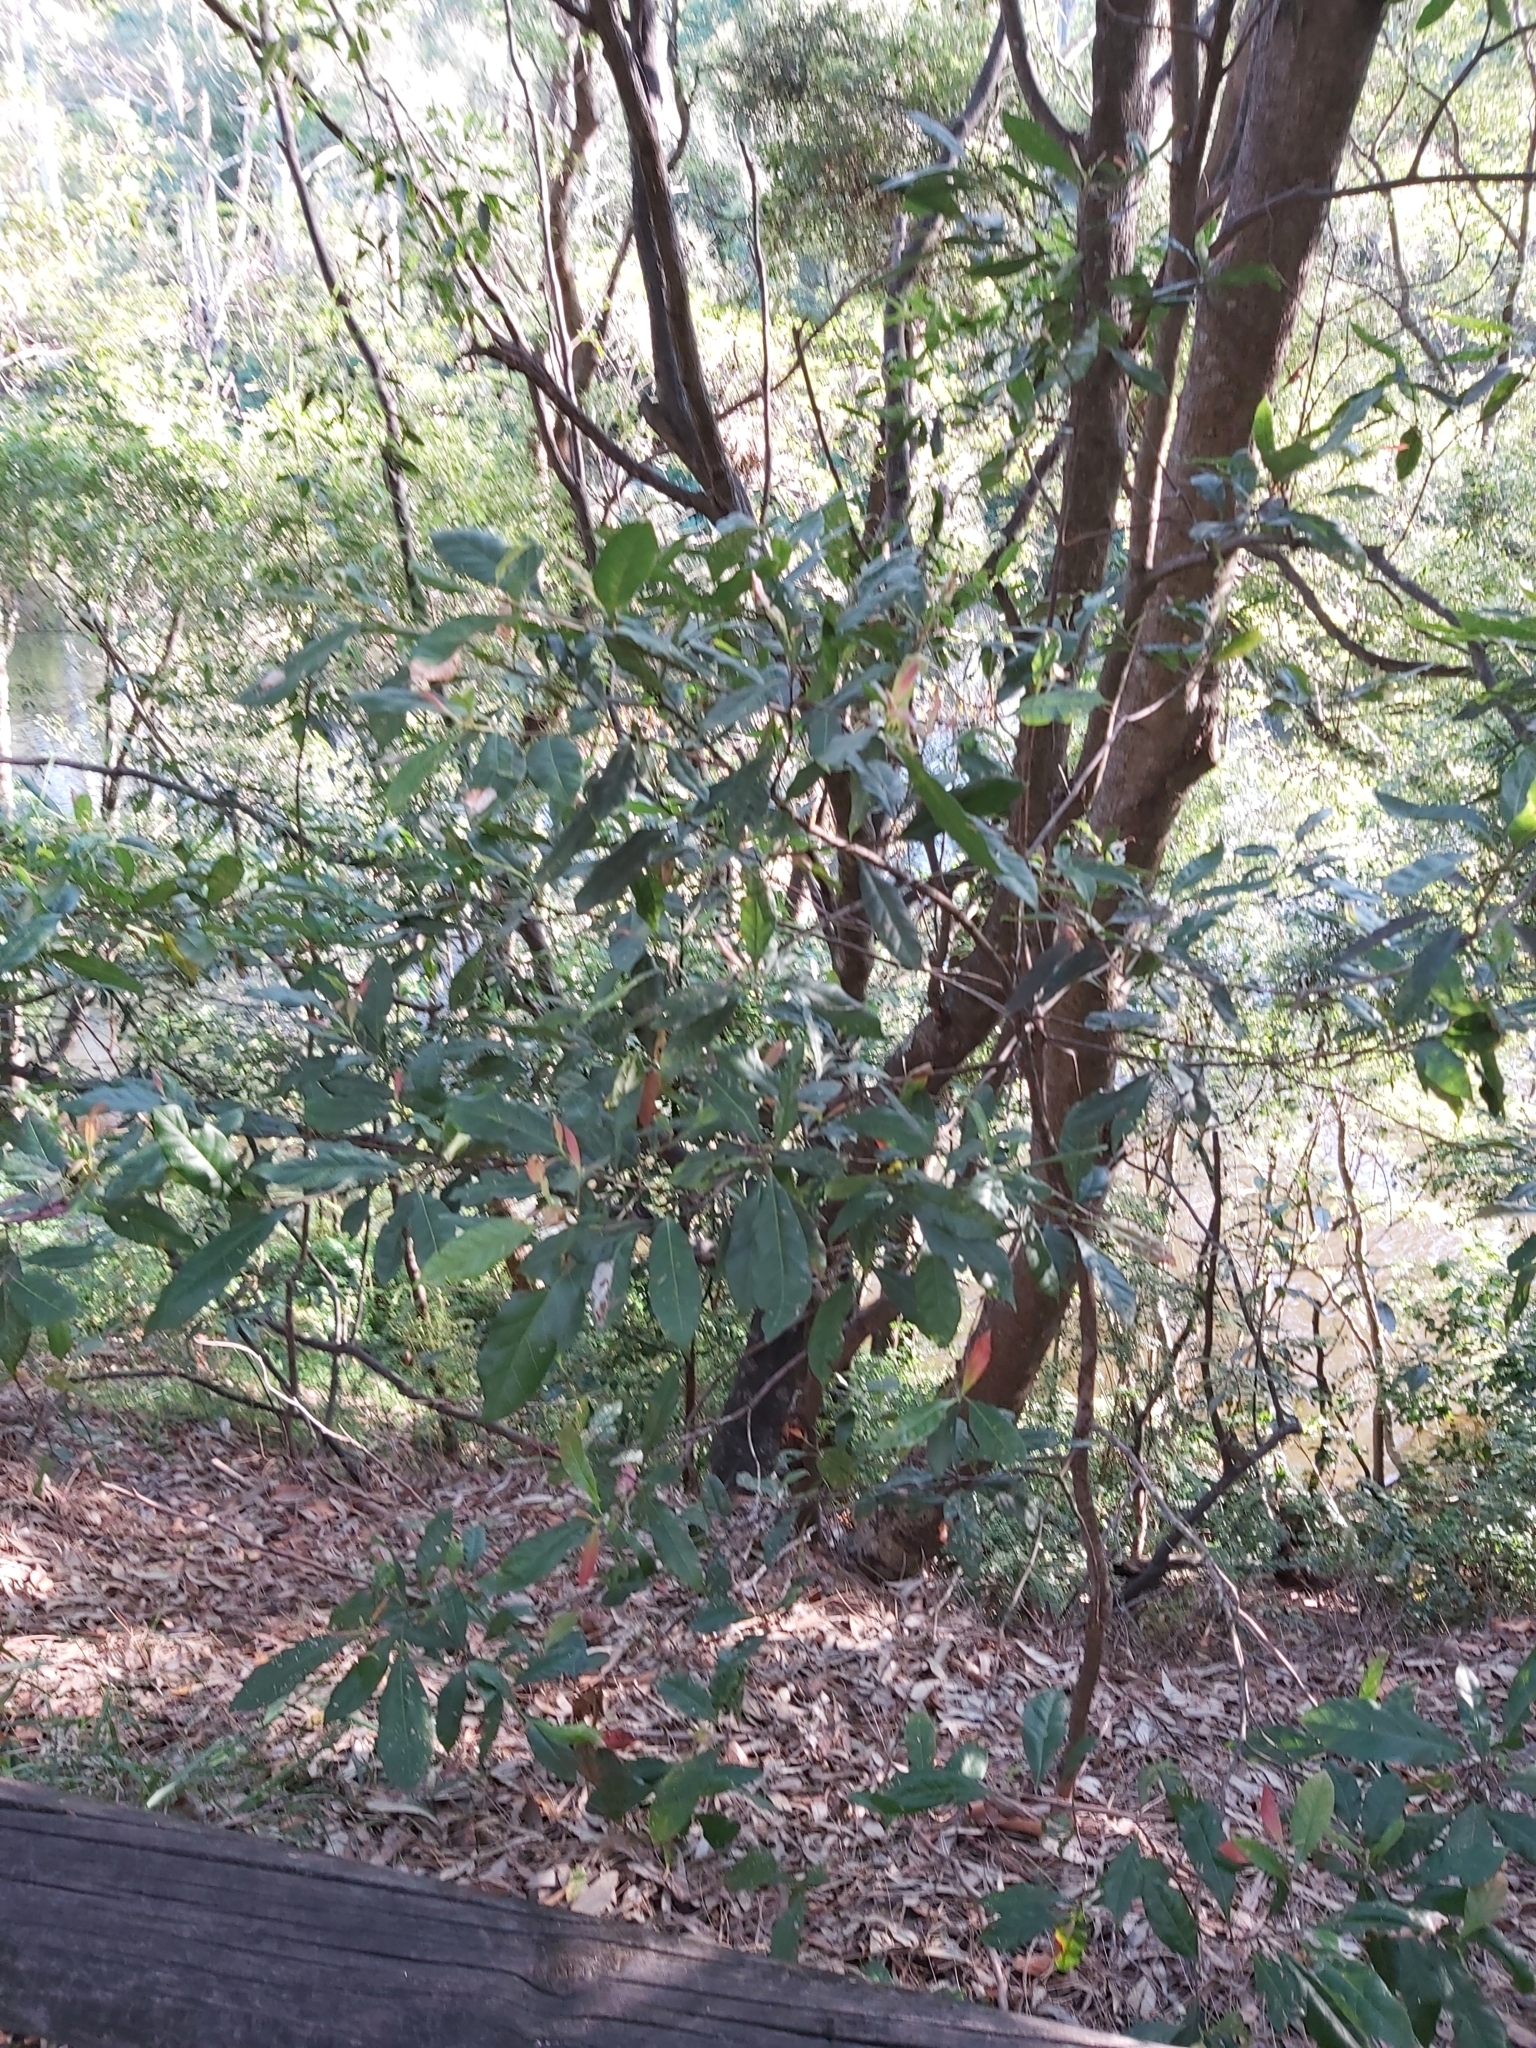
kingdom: Plantae
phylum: Tracheophyta
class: Magnoliopsida
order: Oxalidales
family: Elaeocarpaceae
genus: Elaeocarpus
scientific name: Elaeocarpus reticulatus
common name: Ash quandong
